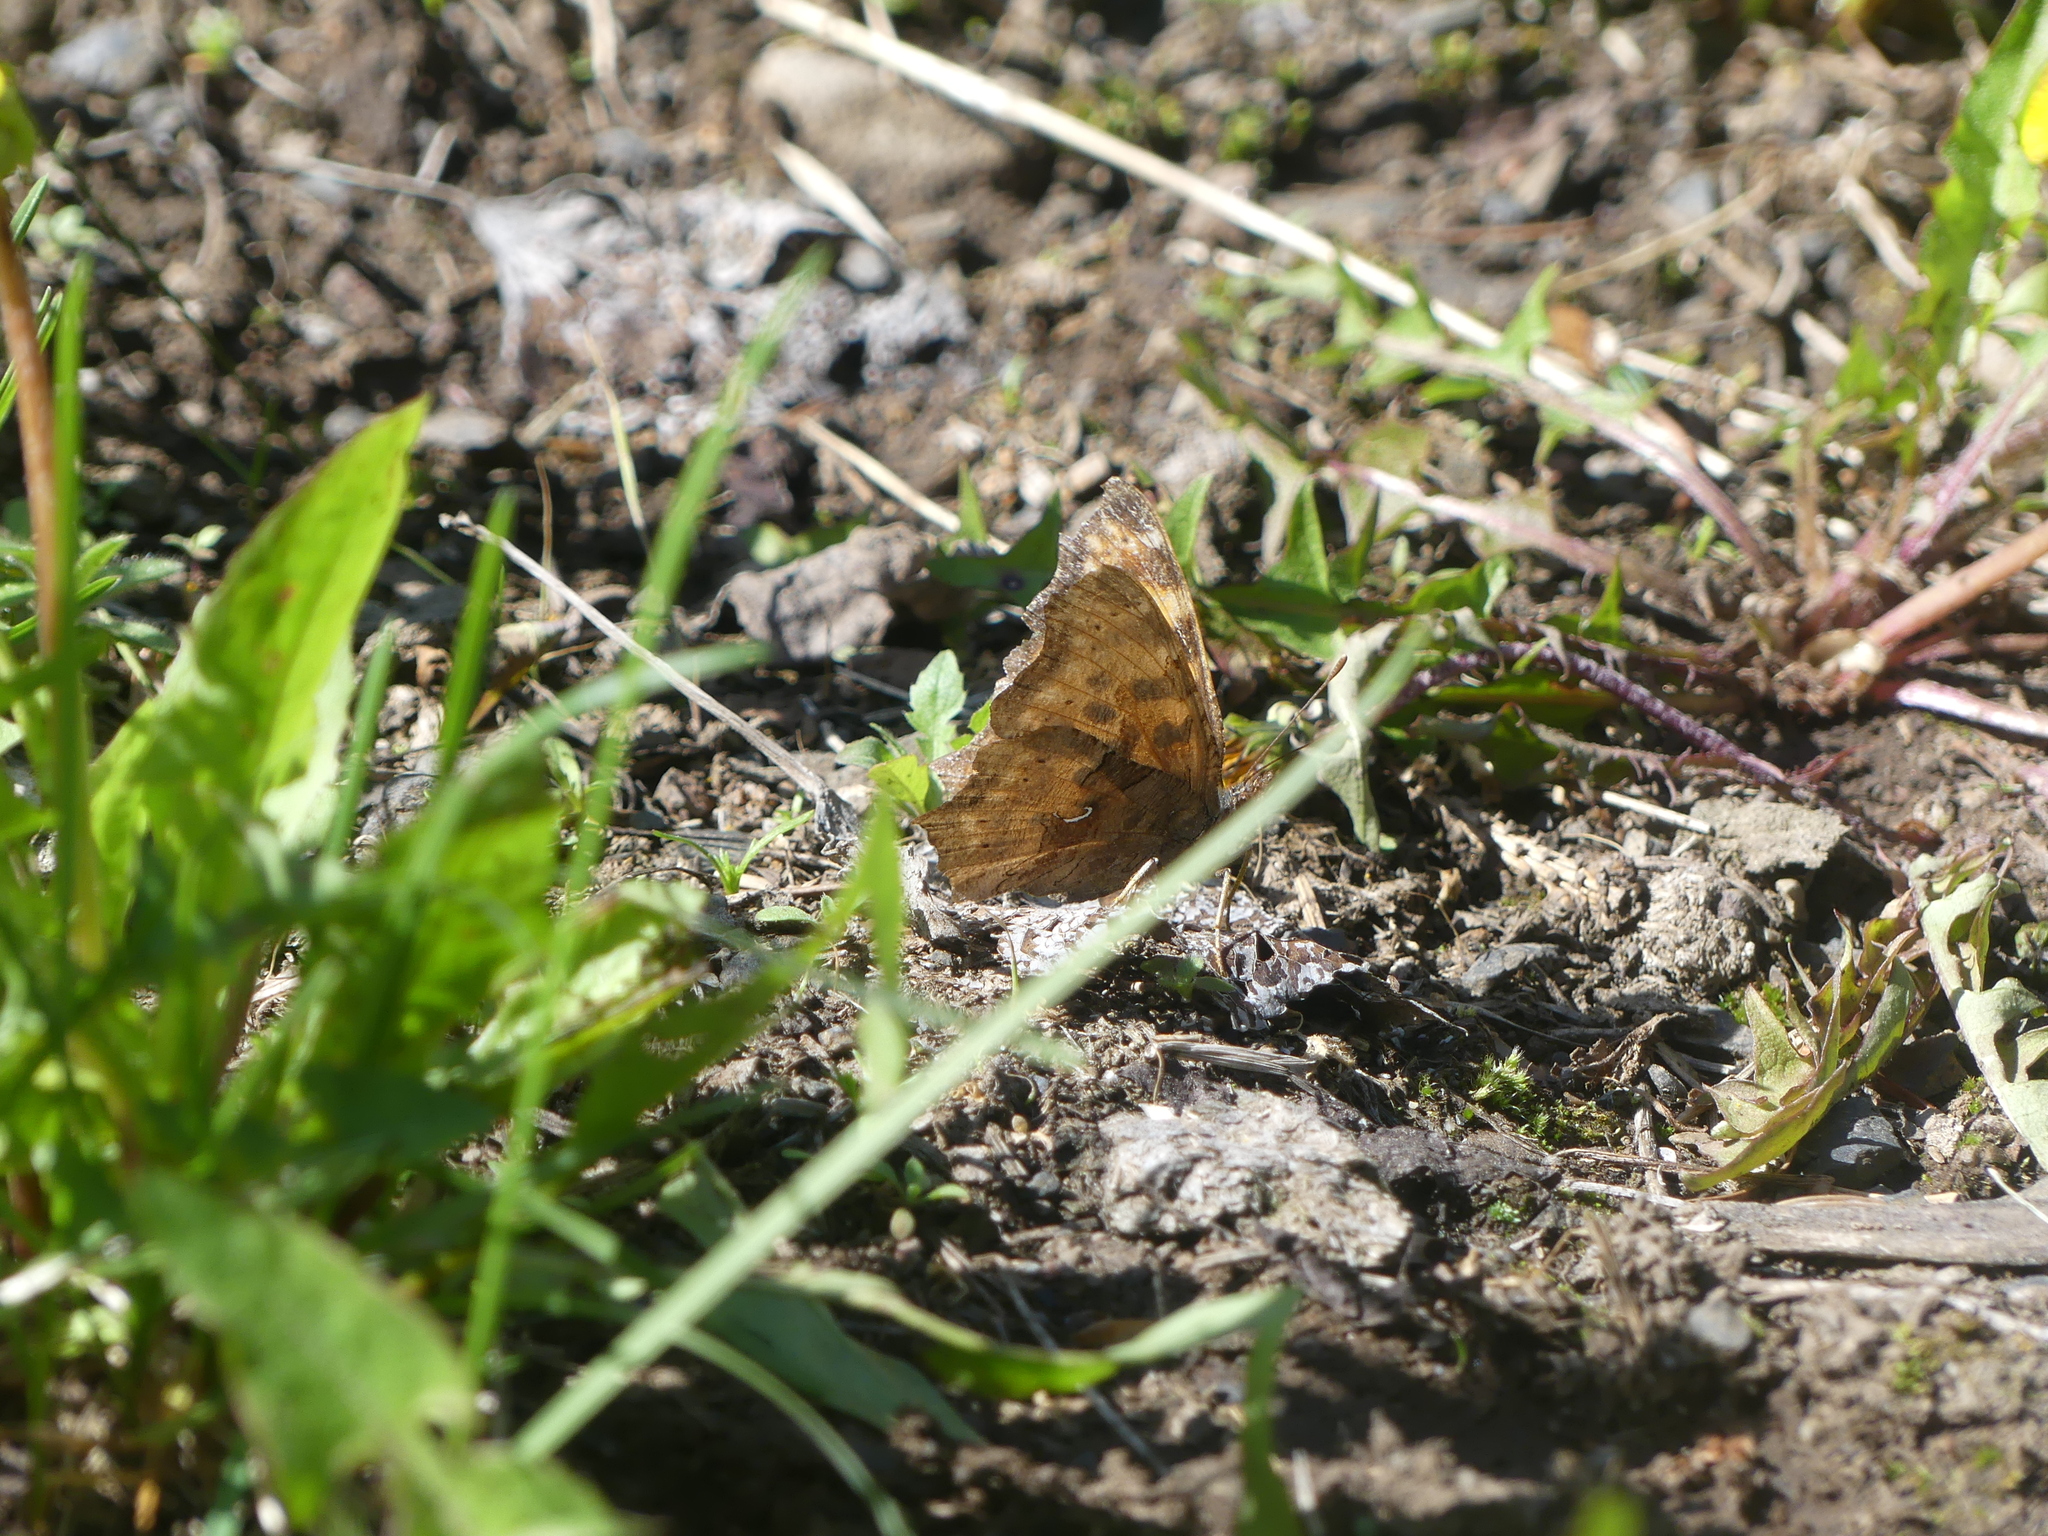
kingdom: Animalia
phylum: Arthropoda
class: Insecta
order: Lepidoptera
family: Nymphalidae
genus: Polygonia
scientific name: Polygonia satyrus
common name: Satyr angle wing
